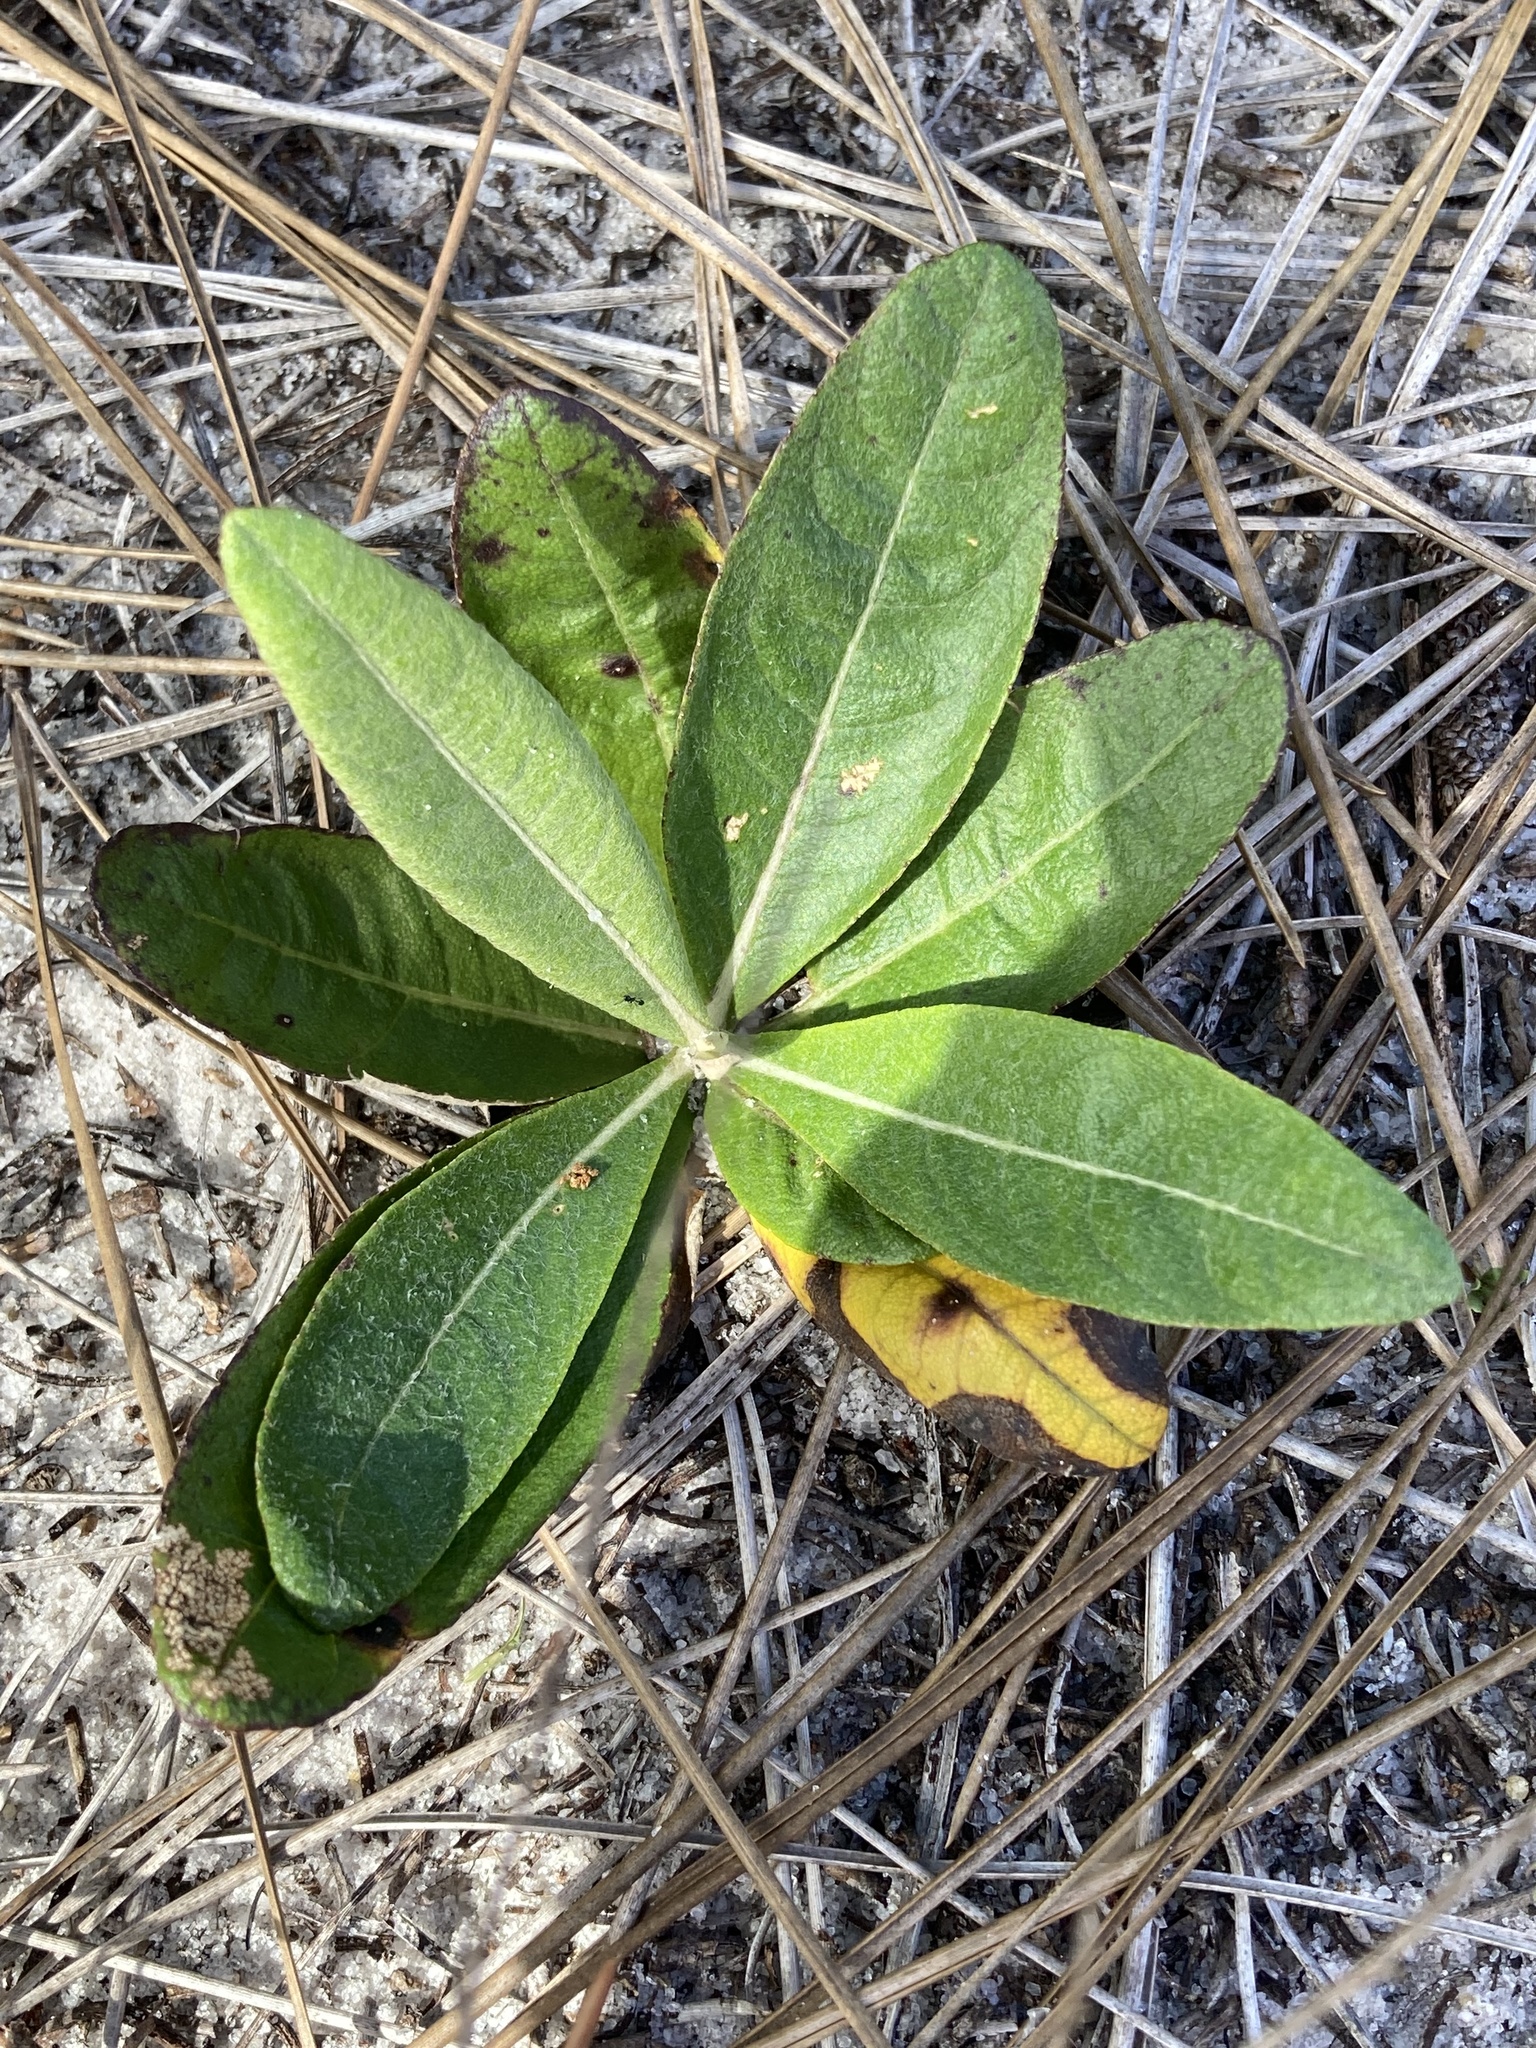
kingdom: Plantae
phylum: Tracheophyta
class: Magnoliopsida
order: Asterales
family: Asteraceae
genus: Pterocaulon
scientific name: Pterocaulon pycnostachyum
